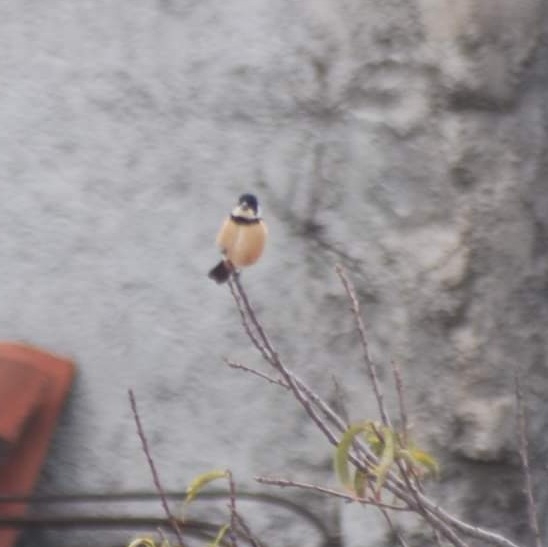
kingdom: Animalia
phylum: Chordata
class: Aves
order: Passeriformes
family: Thraupidae
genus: Sporophila
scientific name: Sporophila torqueola
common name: White-collared seedeater
